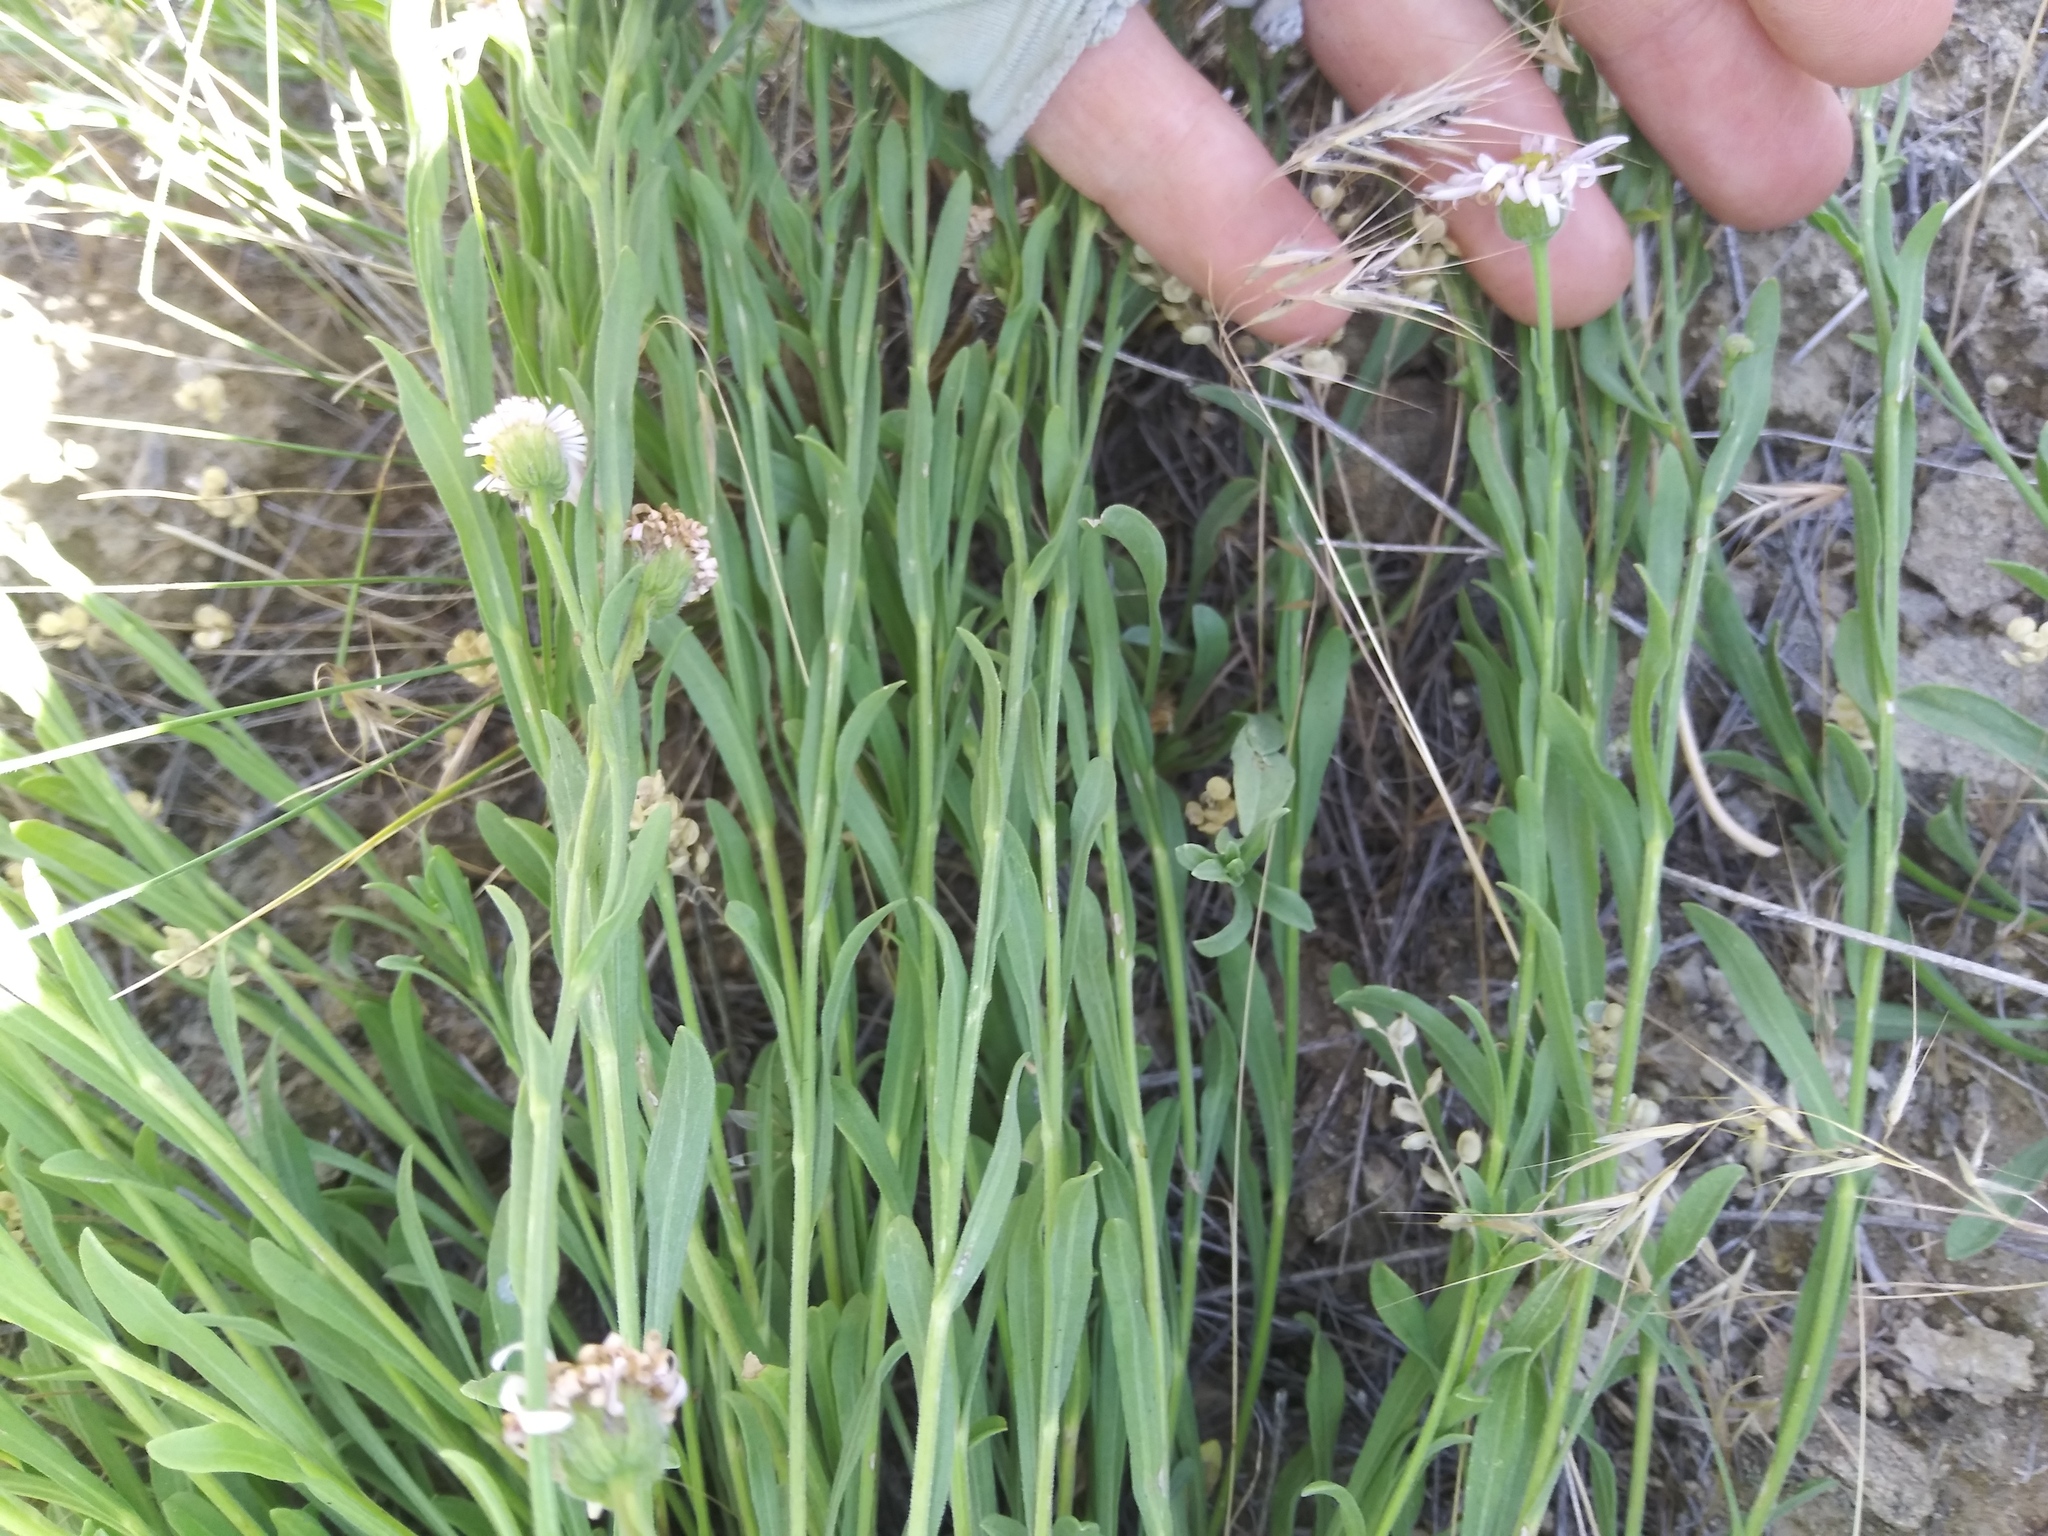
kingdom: Plantae
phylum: Tracheophyta
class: Magnoliopsida
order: Asterales
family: Asteraceae
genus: Erigeron
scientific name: Erigeron caespitosus
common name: Tufted fleabane
